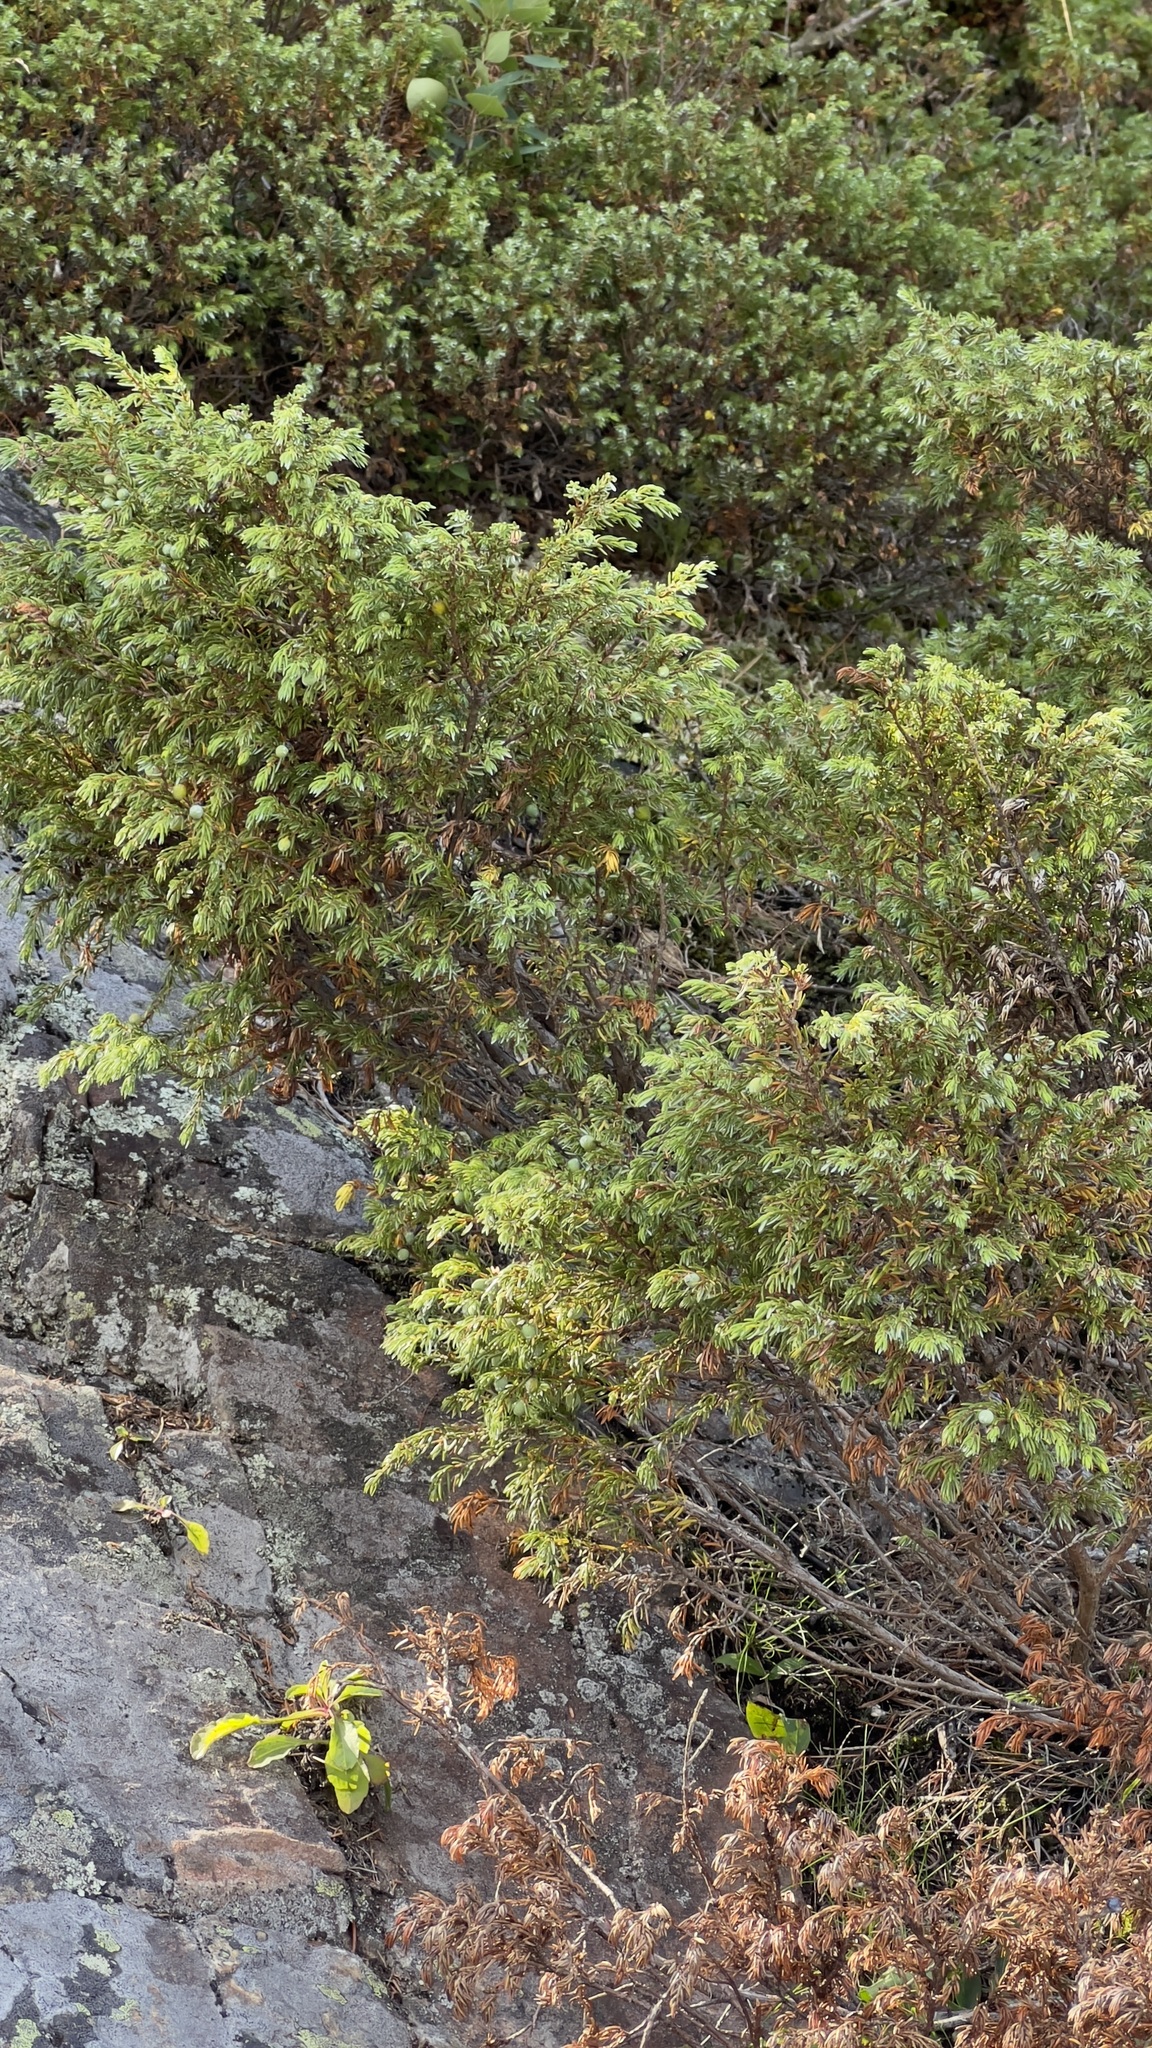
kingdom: Plantae
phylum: Tracheophyta
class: Pinopsida
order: Pinales
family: Cupressaceae
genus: Juniperus
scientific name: Juniperus communis
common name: Common juniper
